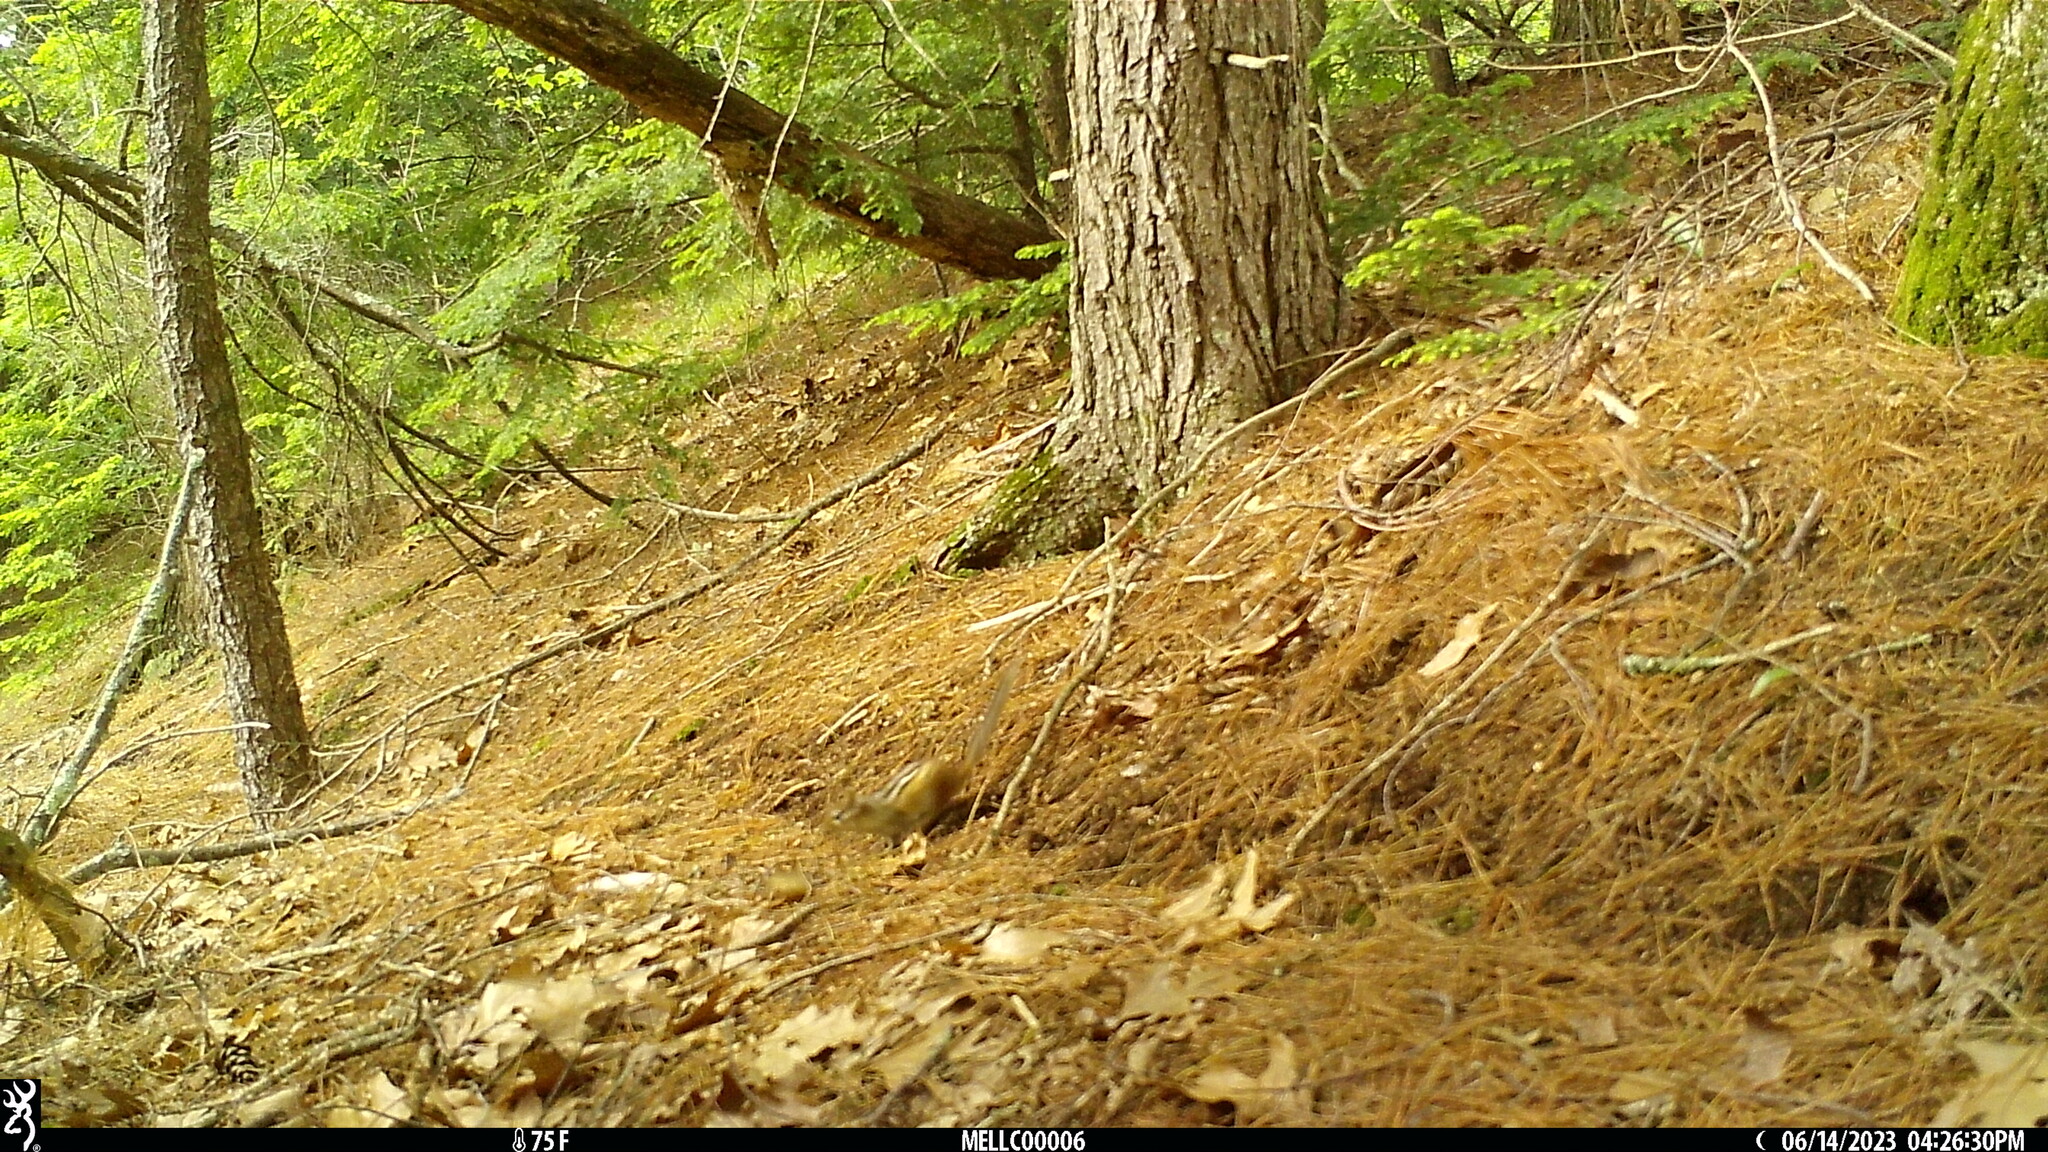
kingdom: Animalia
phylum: Chordata
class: Mammalia
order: Rodentia
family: Sciuridae
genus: Tamias
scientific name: Tamias striatus
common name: Eastern chipmunk
